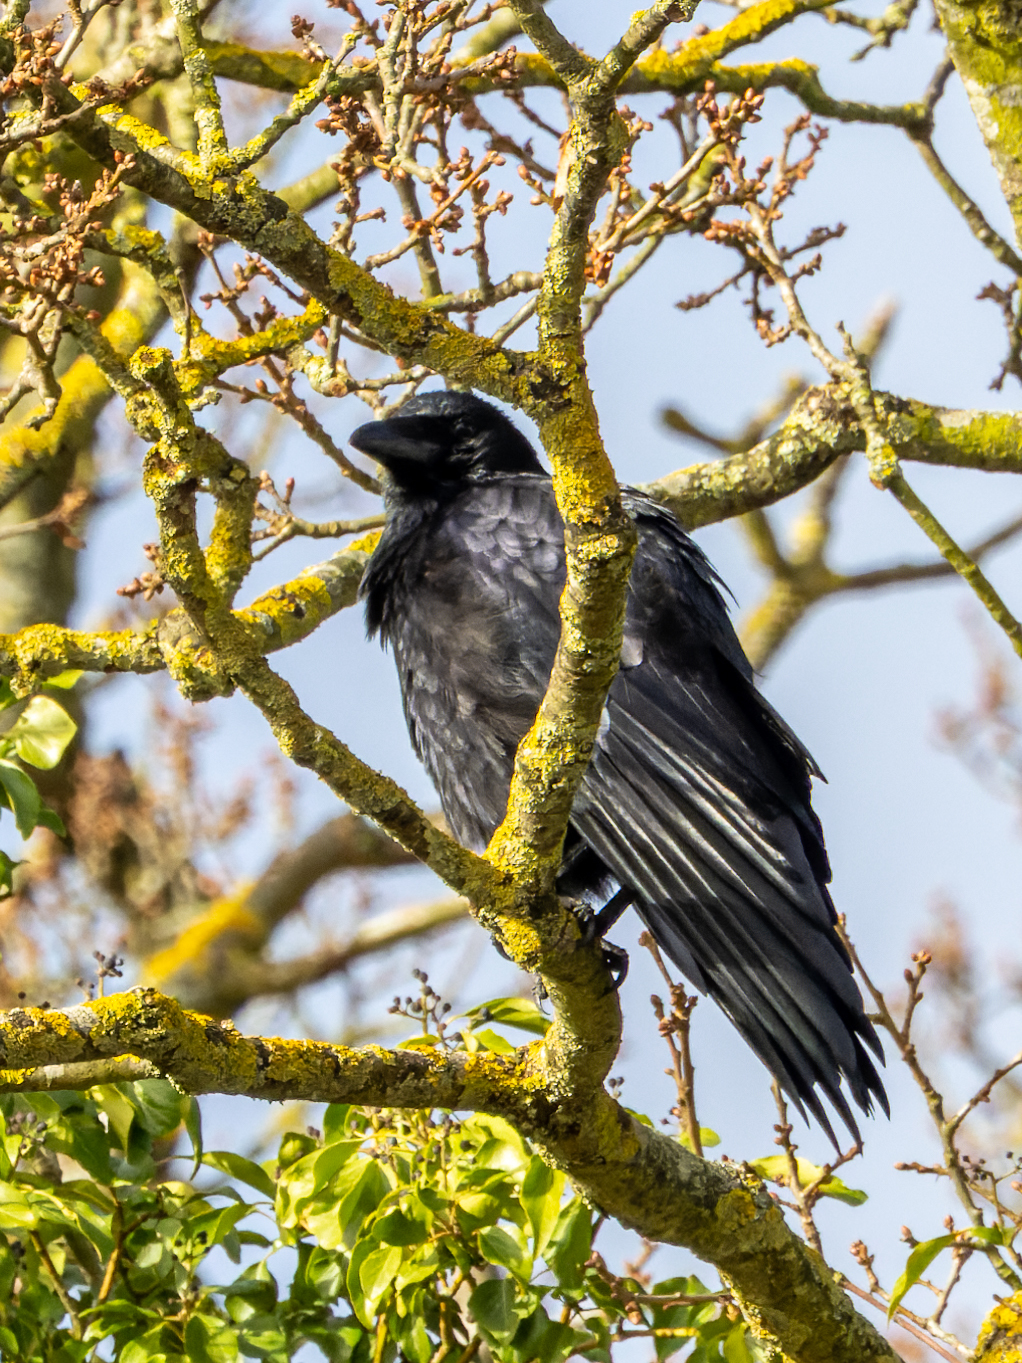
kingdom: Animalia
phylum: Chordata
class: Aves
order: Passeriformes
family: Corvidae
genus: Corvus
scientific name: Corvus corone
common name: Carrion crow
